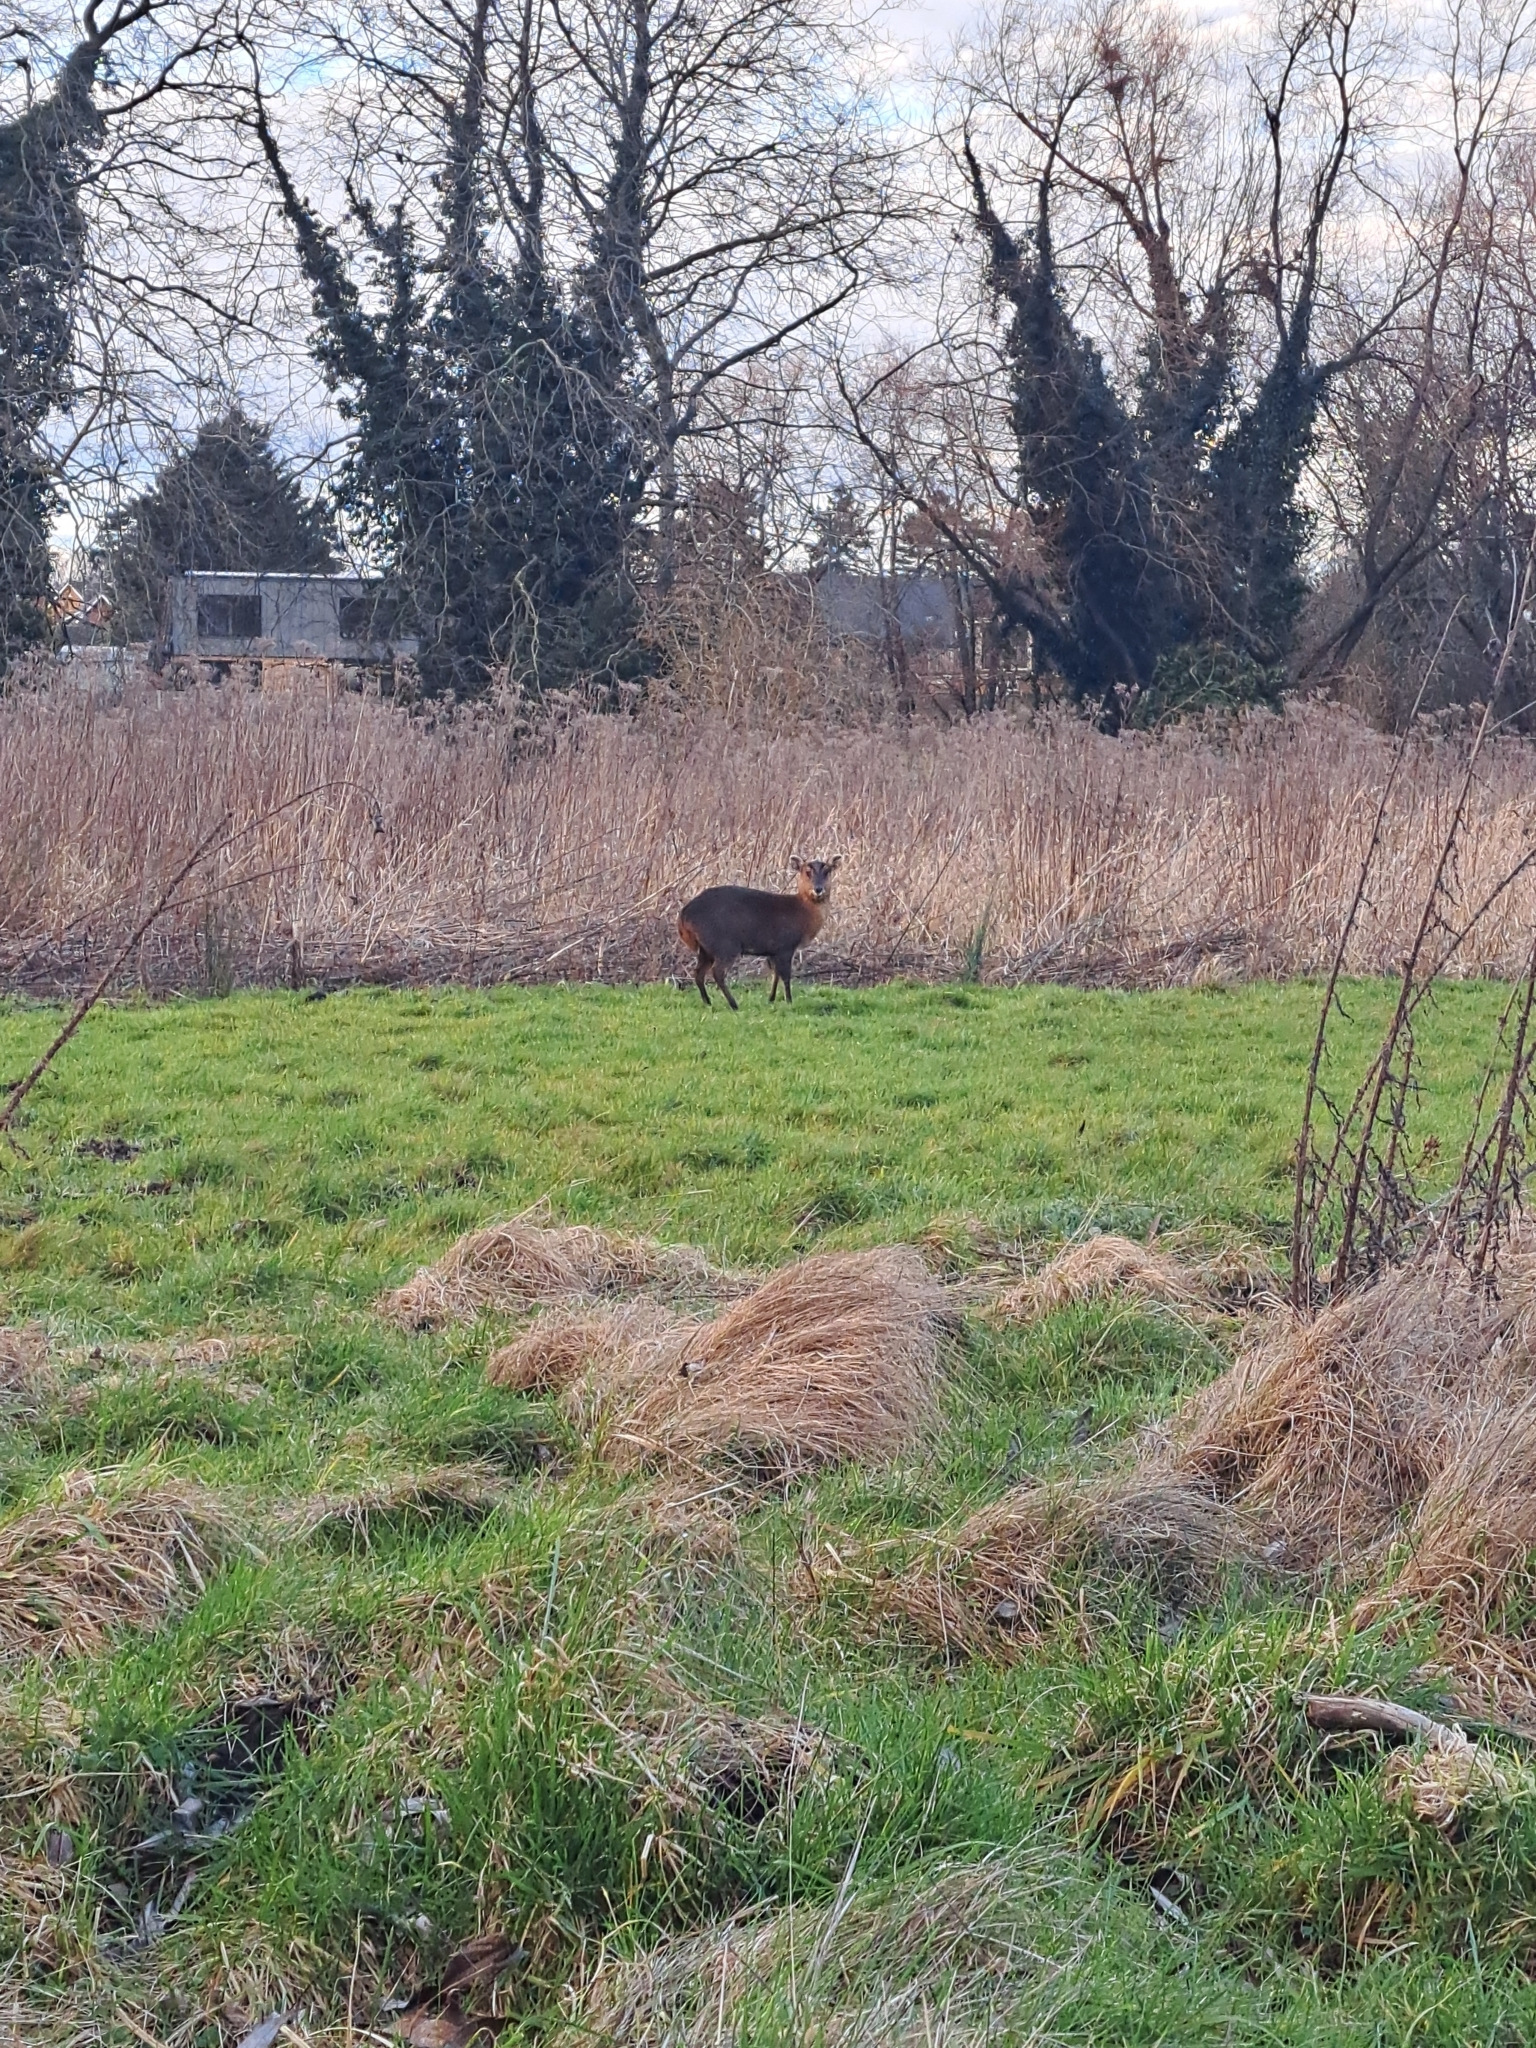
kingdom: Animalia
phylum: Chordata
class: Mammalia
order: Artiodactyla
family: Cervidae
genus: Muntiacus
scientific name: Muntiacus reevesi
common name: Reeves' muntjac
